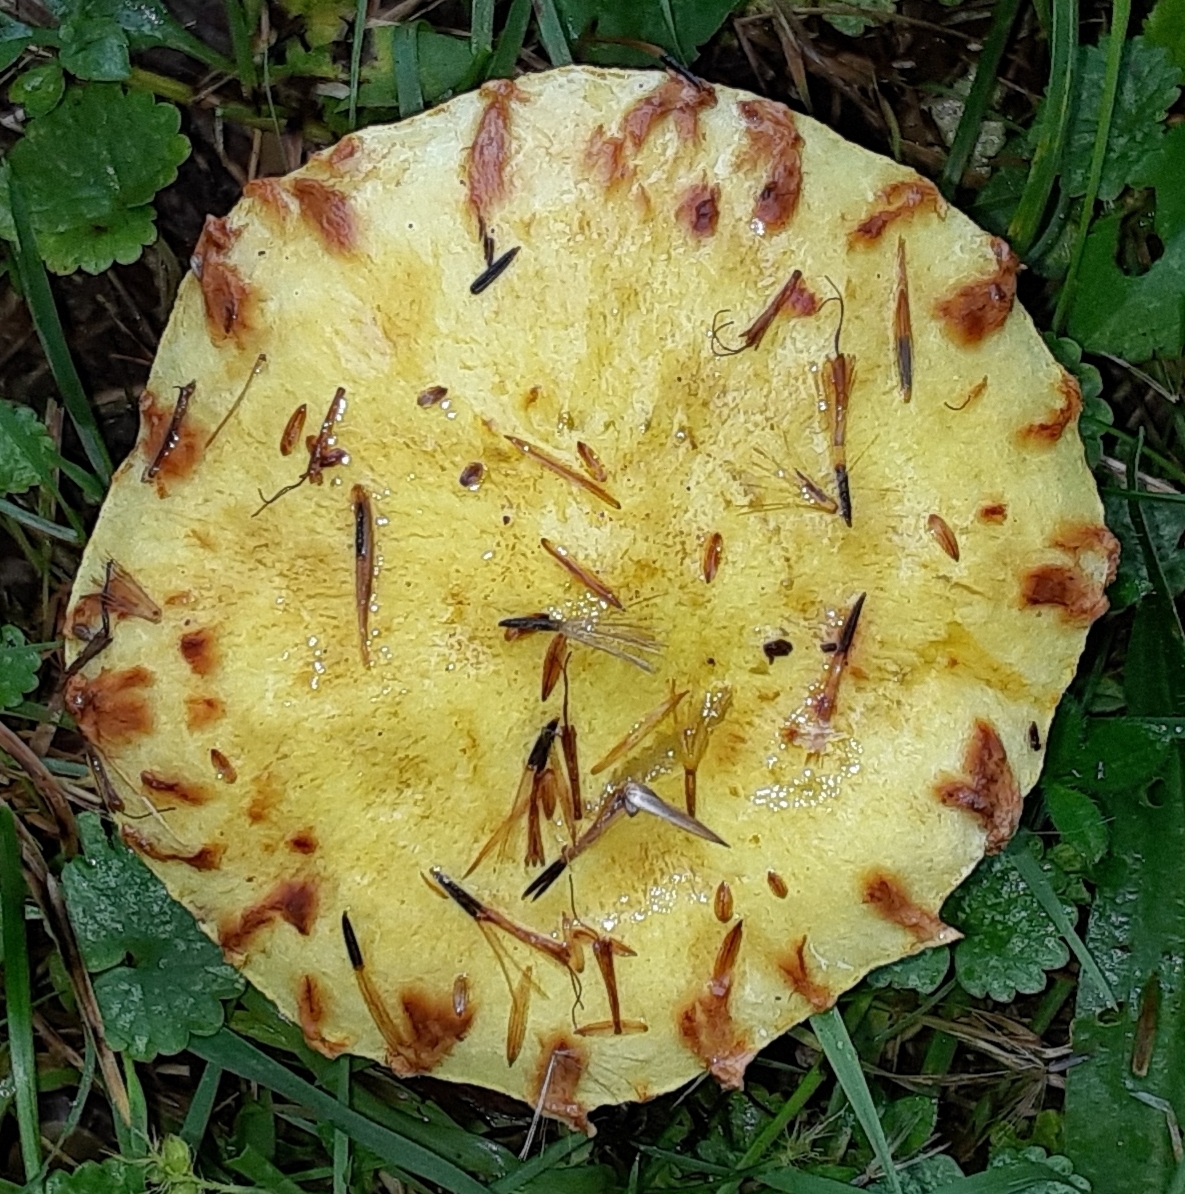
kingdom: Fungi
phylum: Basidiomycota
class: Agaricomycetes
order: Boletales
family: Suillaceae
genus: Suillus
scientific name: Suillus americanus
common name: Chicken fat mushroom
